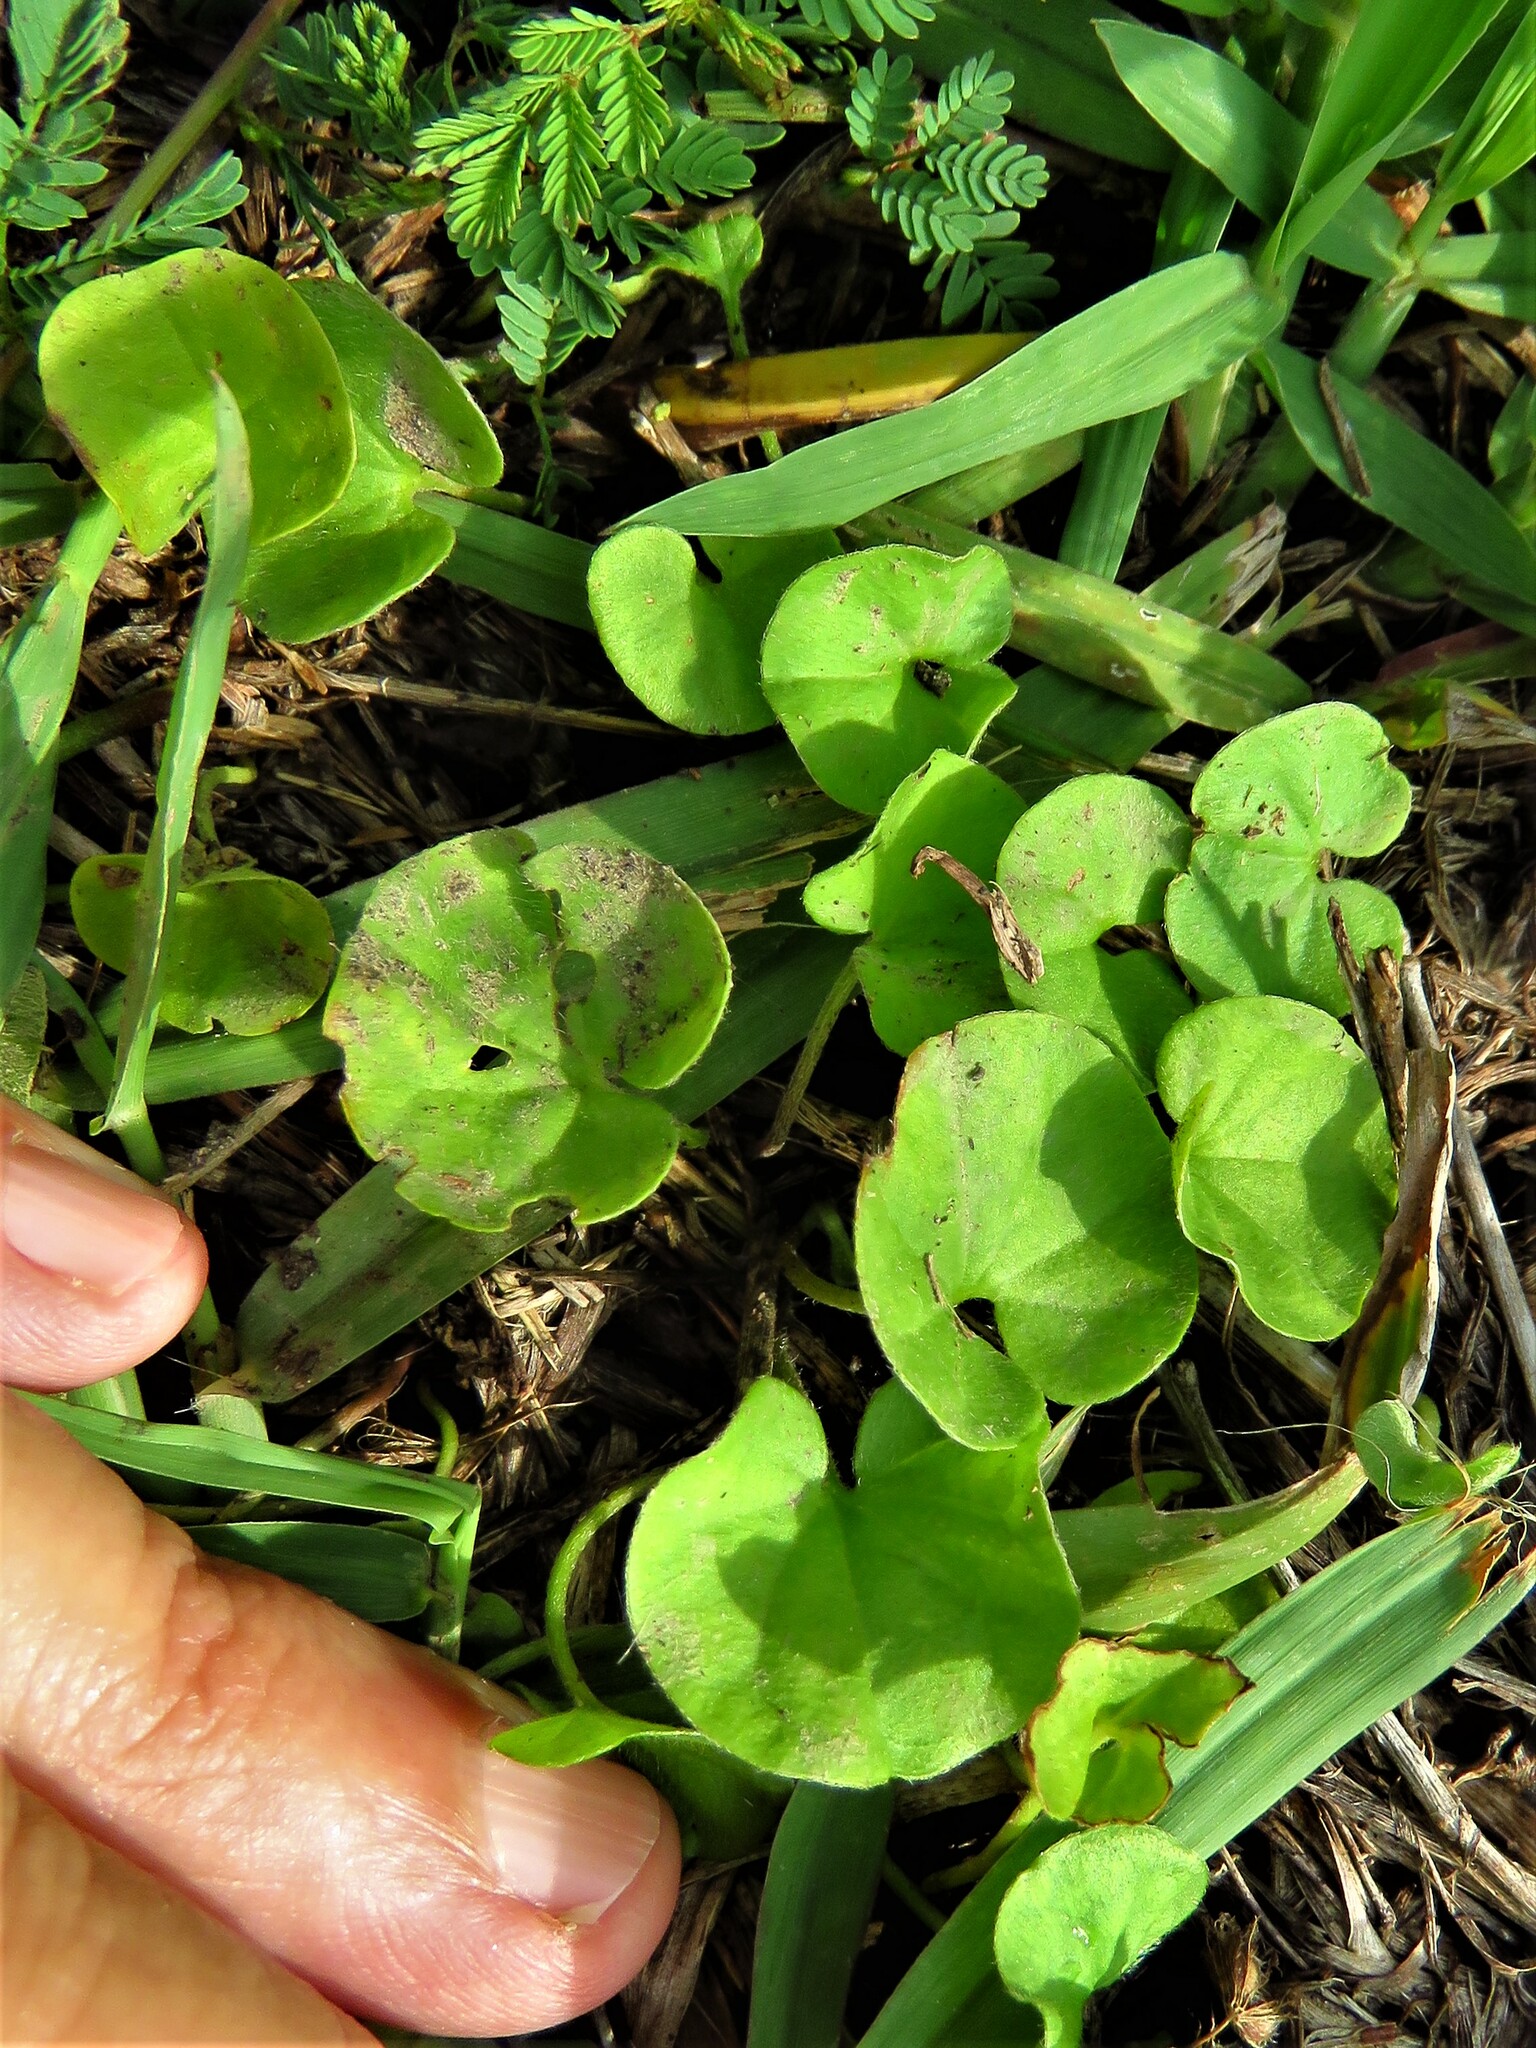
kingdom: Plantae
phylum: Tracheophyta
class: Magnoliopsida
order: Solanales
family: Convolvulaceae
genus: Dichondra
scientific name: Dichondra carolinensis
